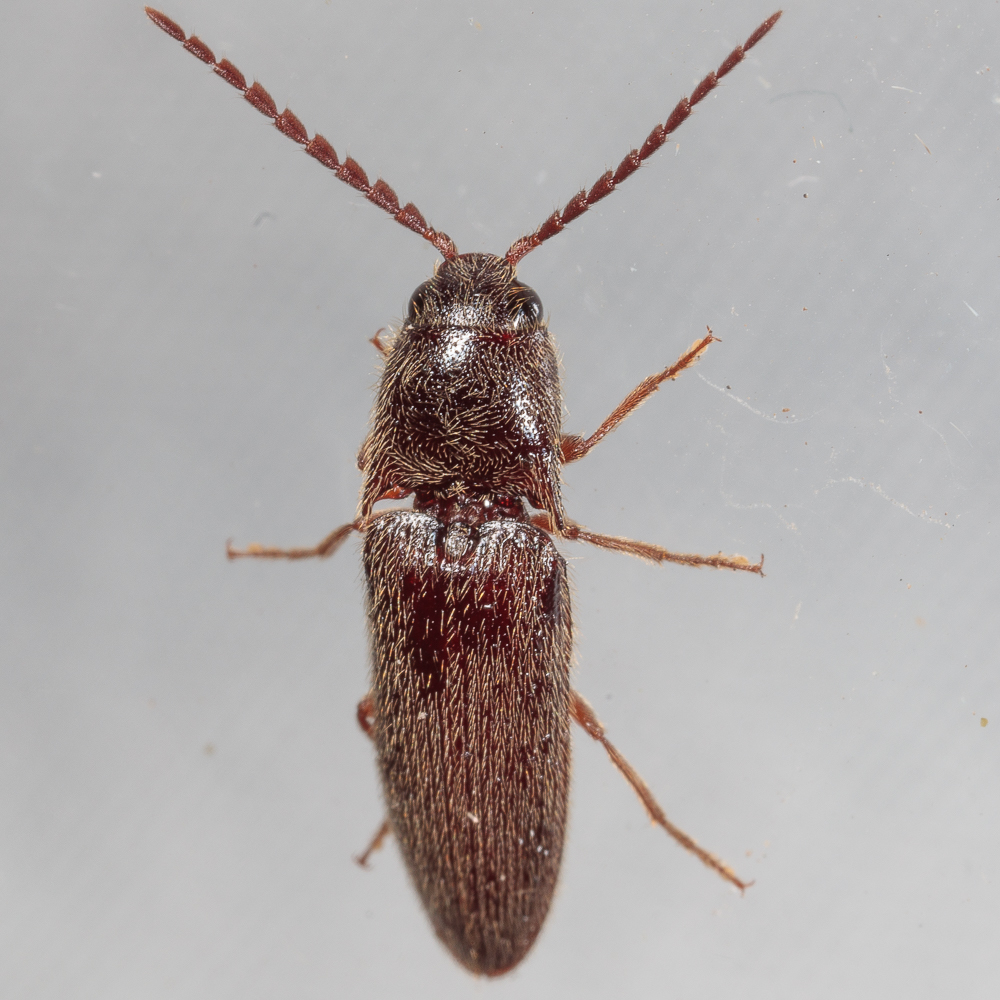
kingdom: Animalia
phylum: Arthropoda
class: Insecta
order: Coleoptera
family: Elateridae
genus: Dipropus
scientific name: Dipropus
